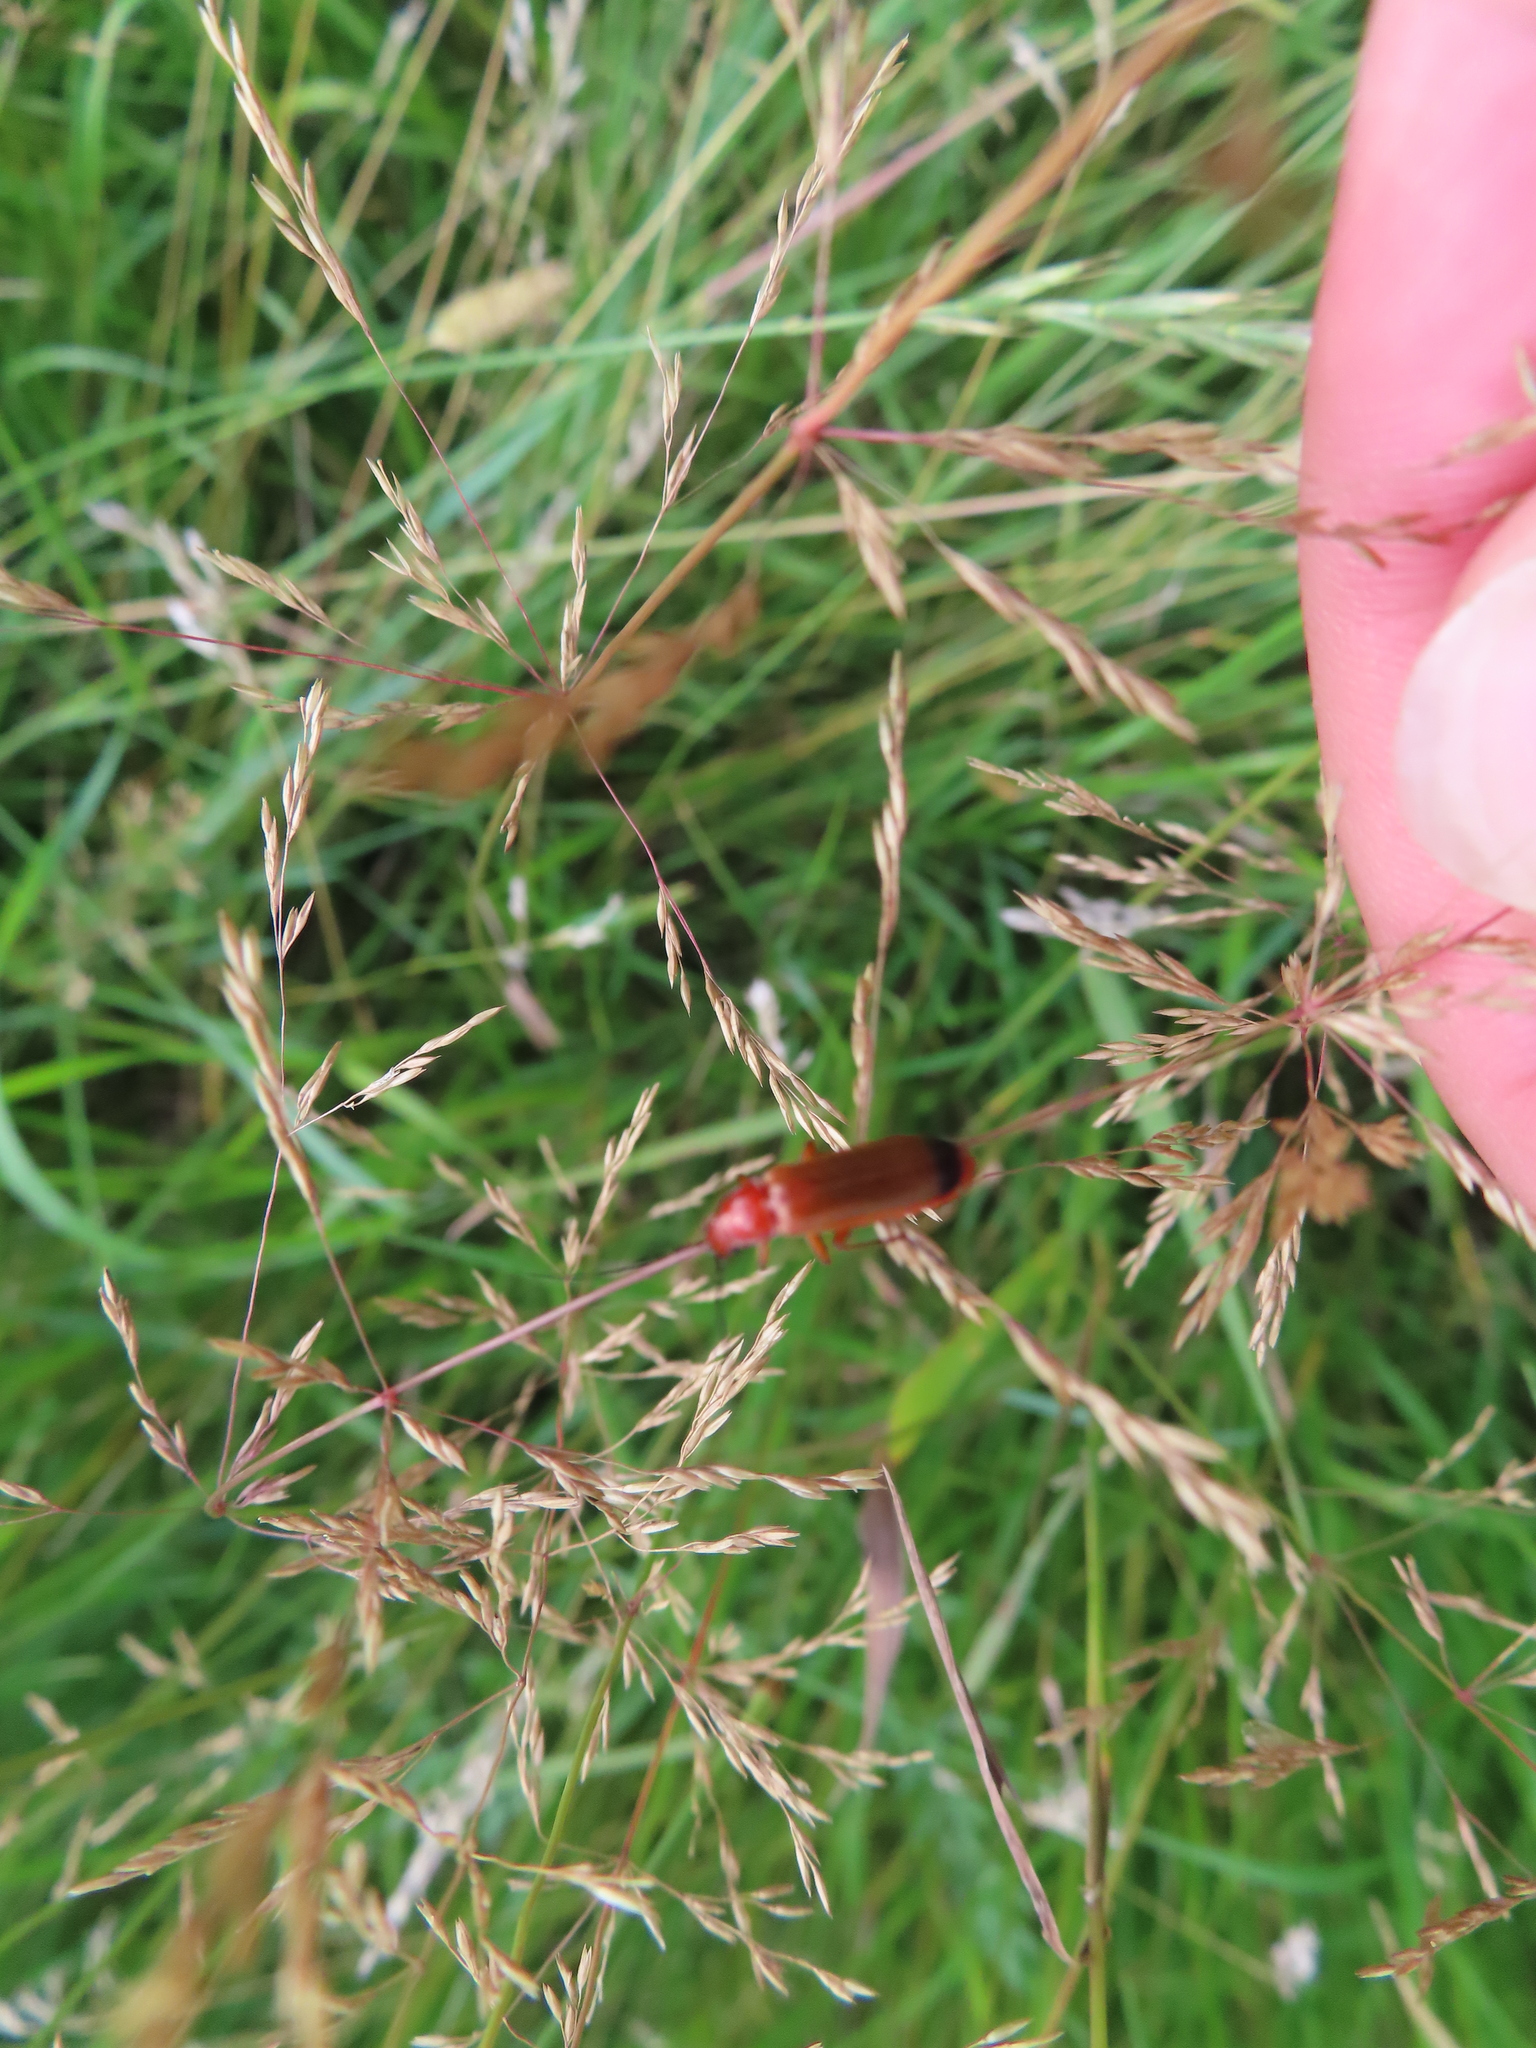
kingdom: Animalia
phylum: Arthropoda
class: Insecta
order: Coleoptera
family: Cantharidae
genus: Rhagonycha
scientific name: Rhagonycha fulva
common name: Common red soldier beetle
